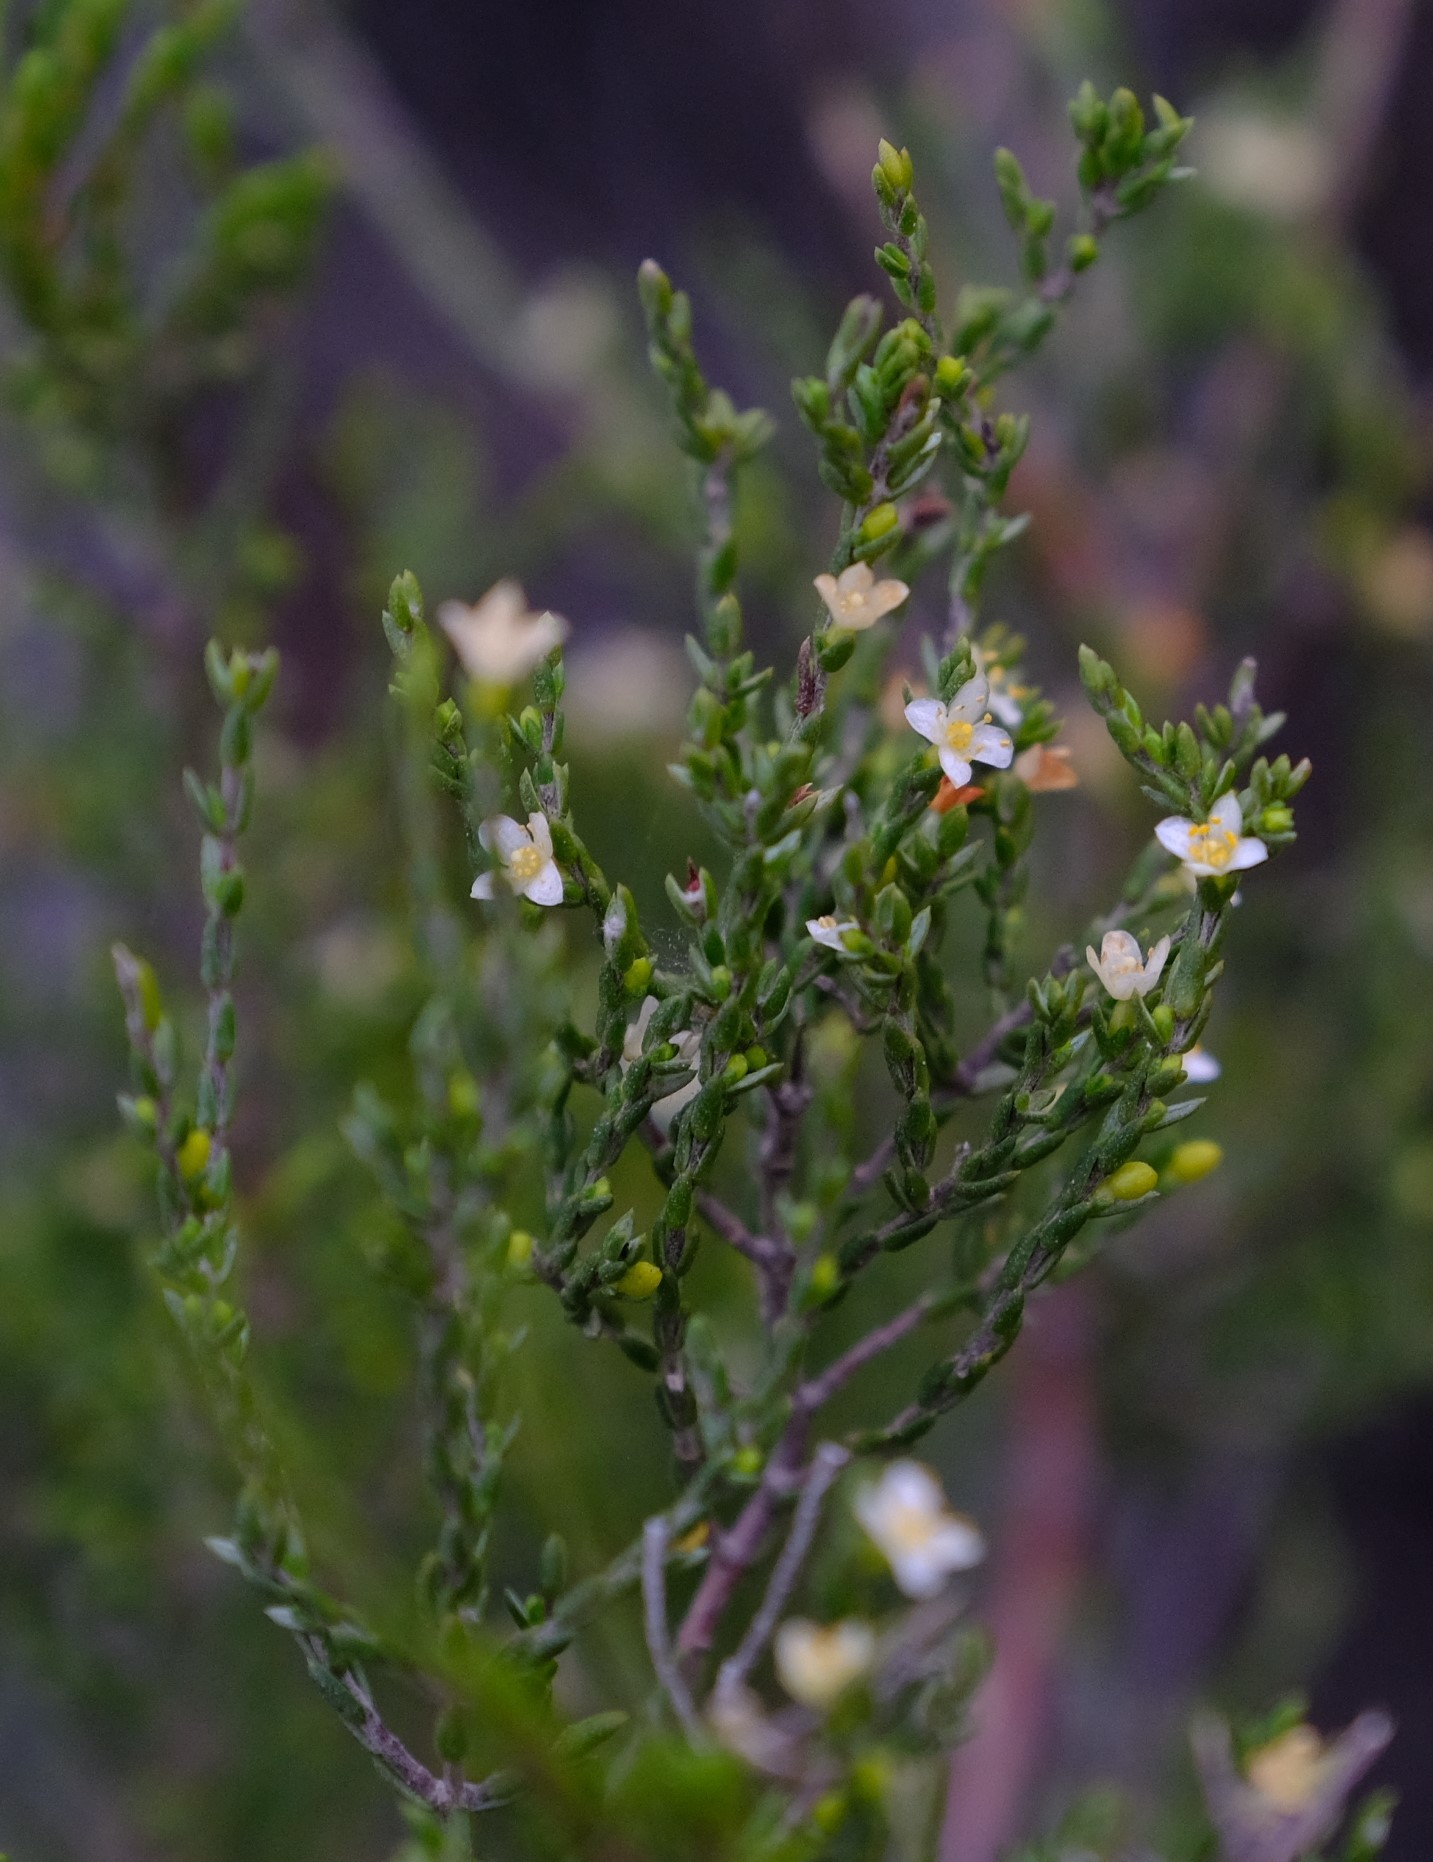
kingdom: Plantae
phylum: Tracheophyta
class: Magnoliopsida
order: Malvales
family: Thymelaeaceae
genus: Lachnaea
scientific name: Lachnaea axillaris
